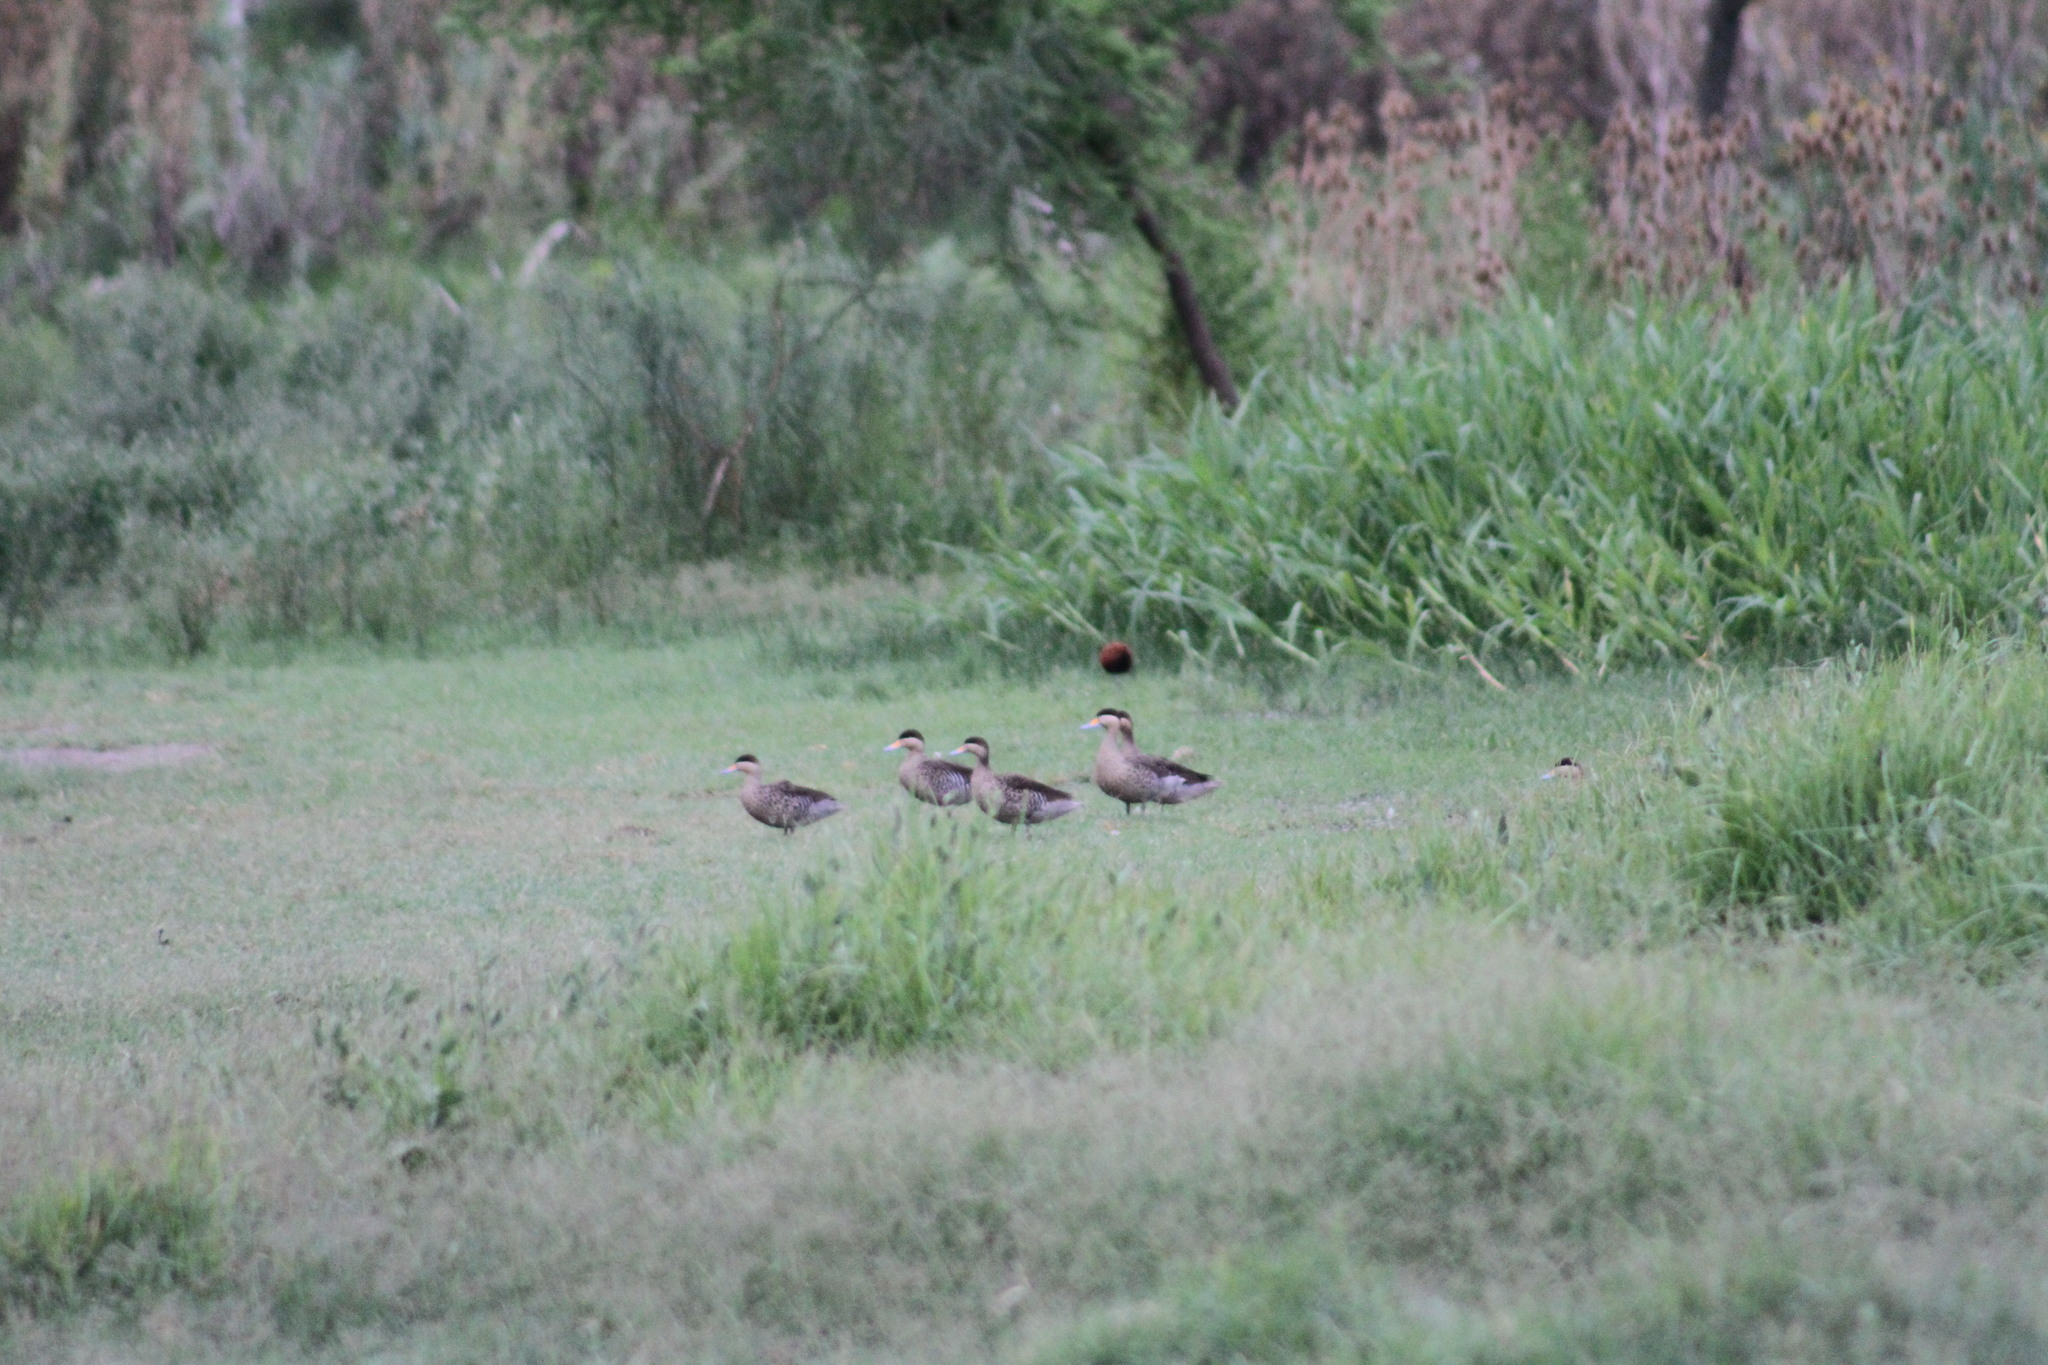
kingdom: Animalia
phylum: Chordata
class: Aves
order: Anseriformes
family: Anatidae
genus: Spatula
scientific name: Spatula versicolor
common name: Silver teal
